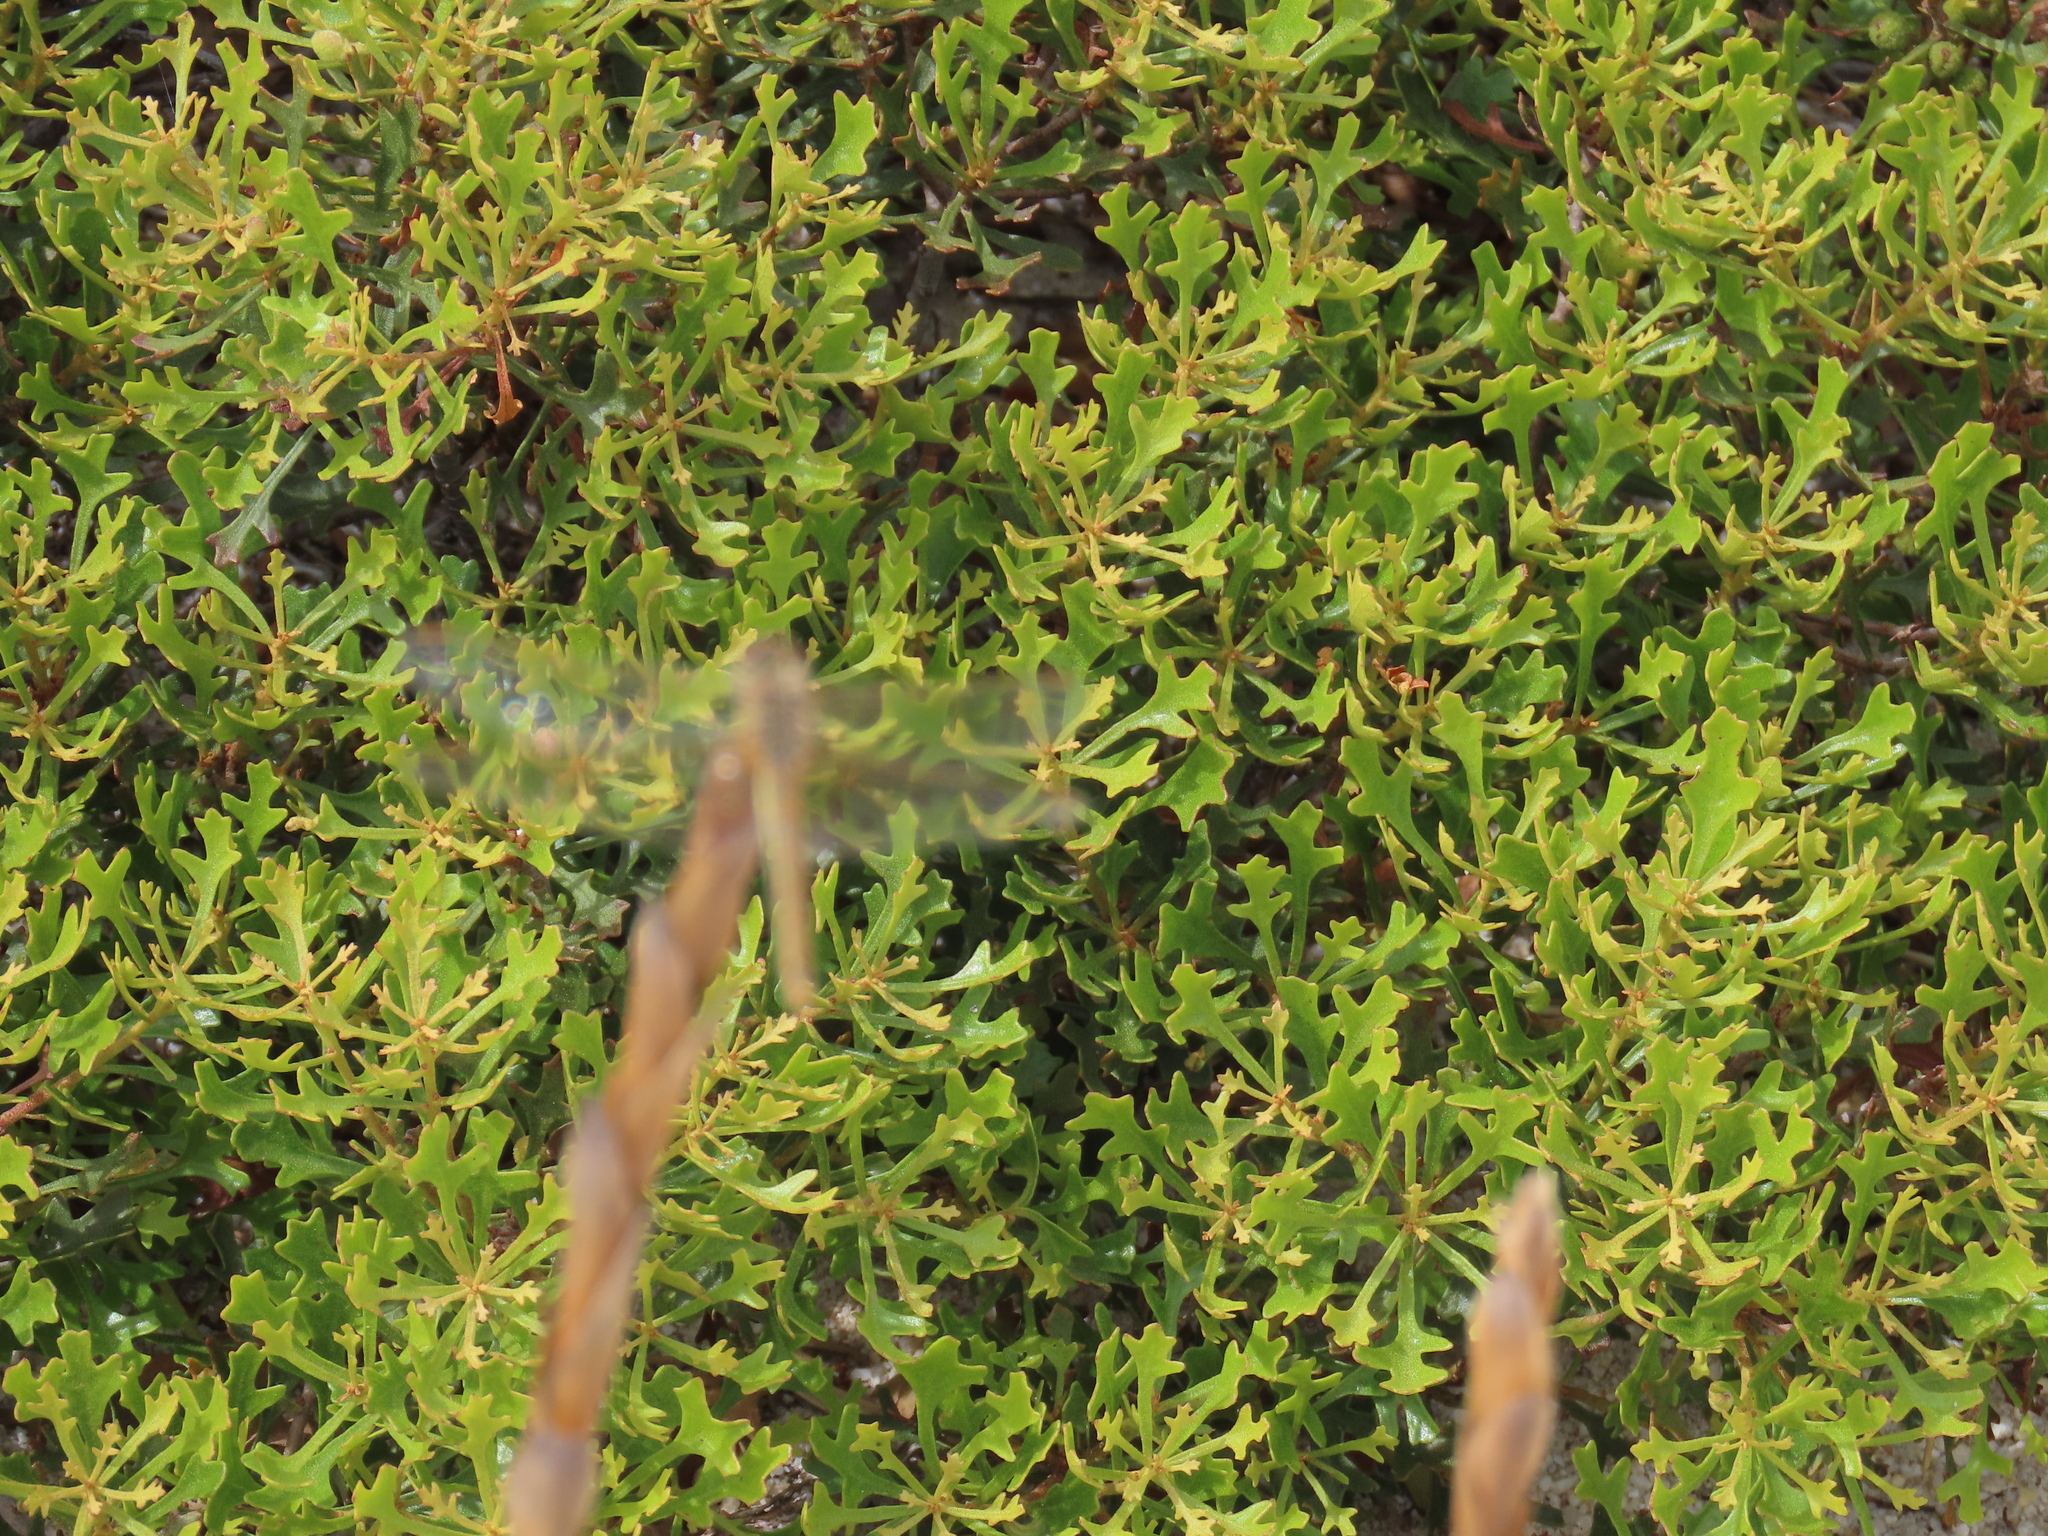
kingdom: Animalia
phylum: Arthropoda
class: Insecta
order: Odonata
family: Libellulidae
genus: Sympetrum
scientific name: Sympetrum fonscolombii
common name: Red-veined darter
